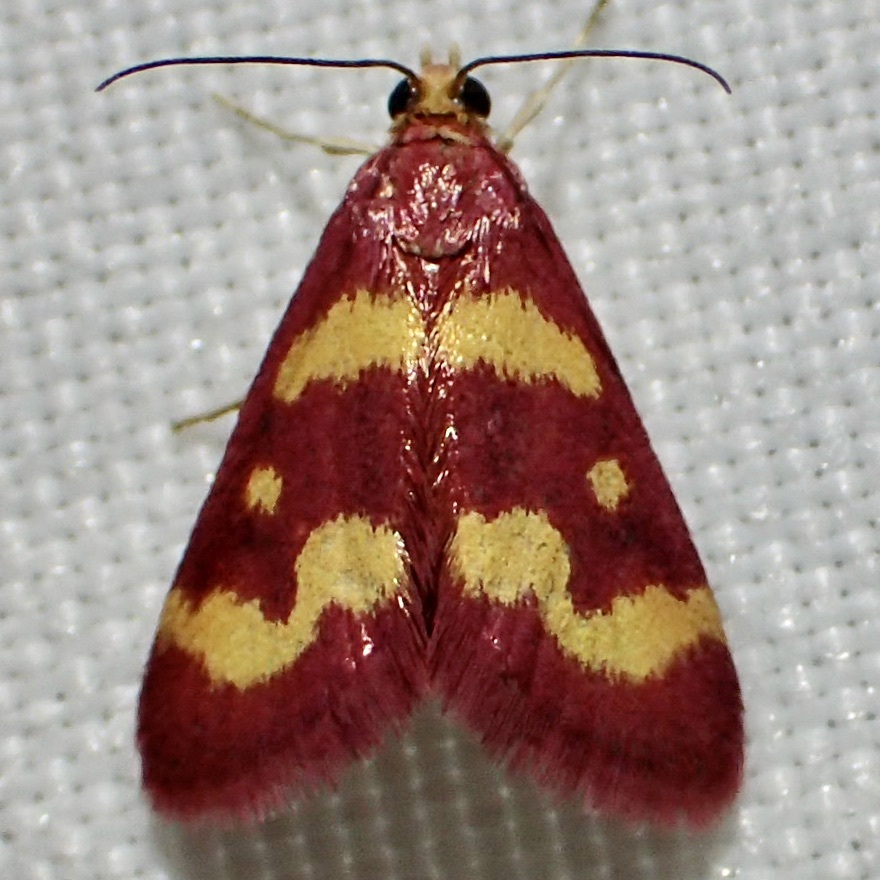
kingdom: Animalia
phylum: Arthropoda
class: Insecta
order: Lepidoptera
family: Crambidae
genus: Pyrausta
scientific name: Pyrausta tyralis
